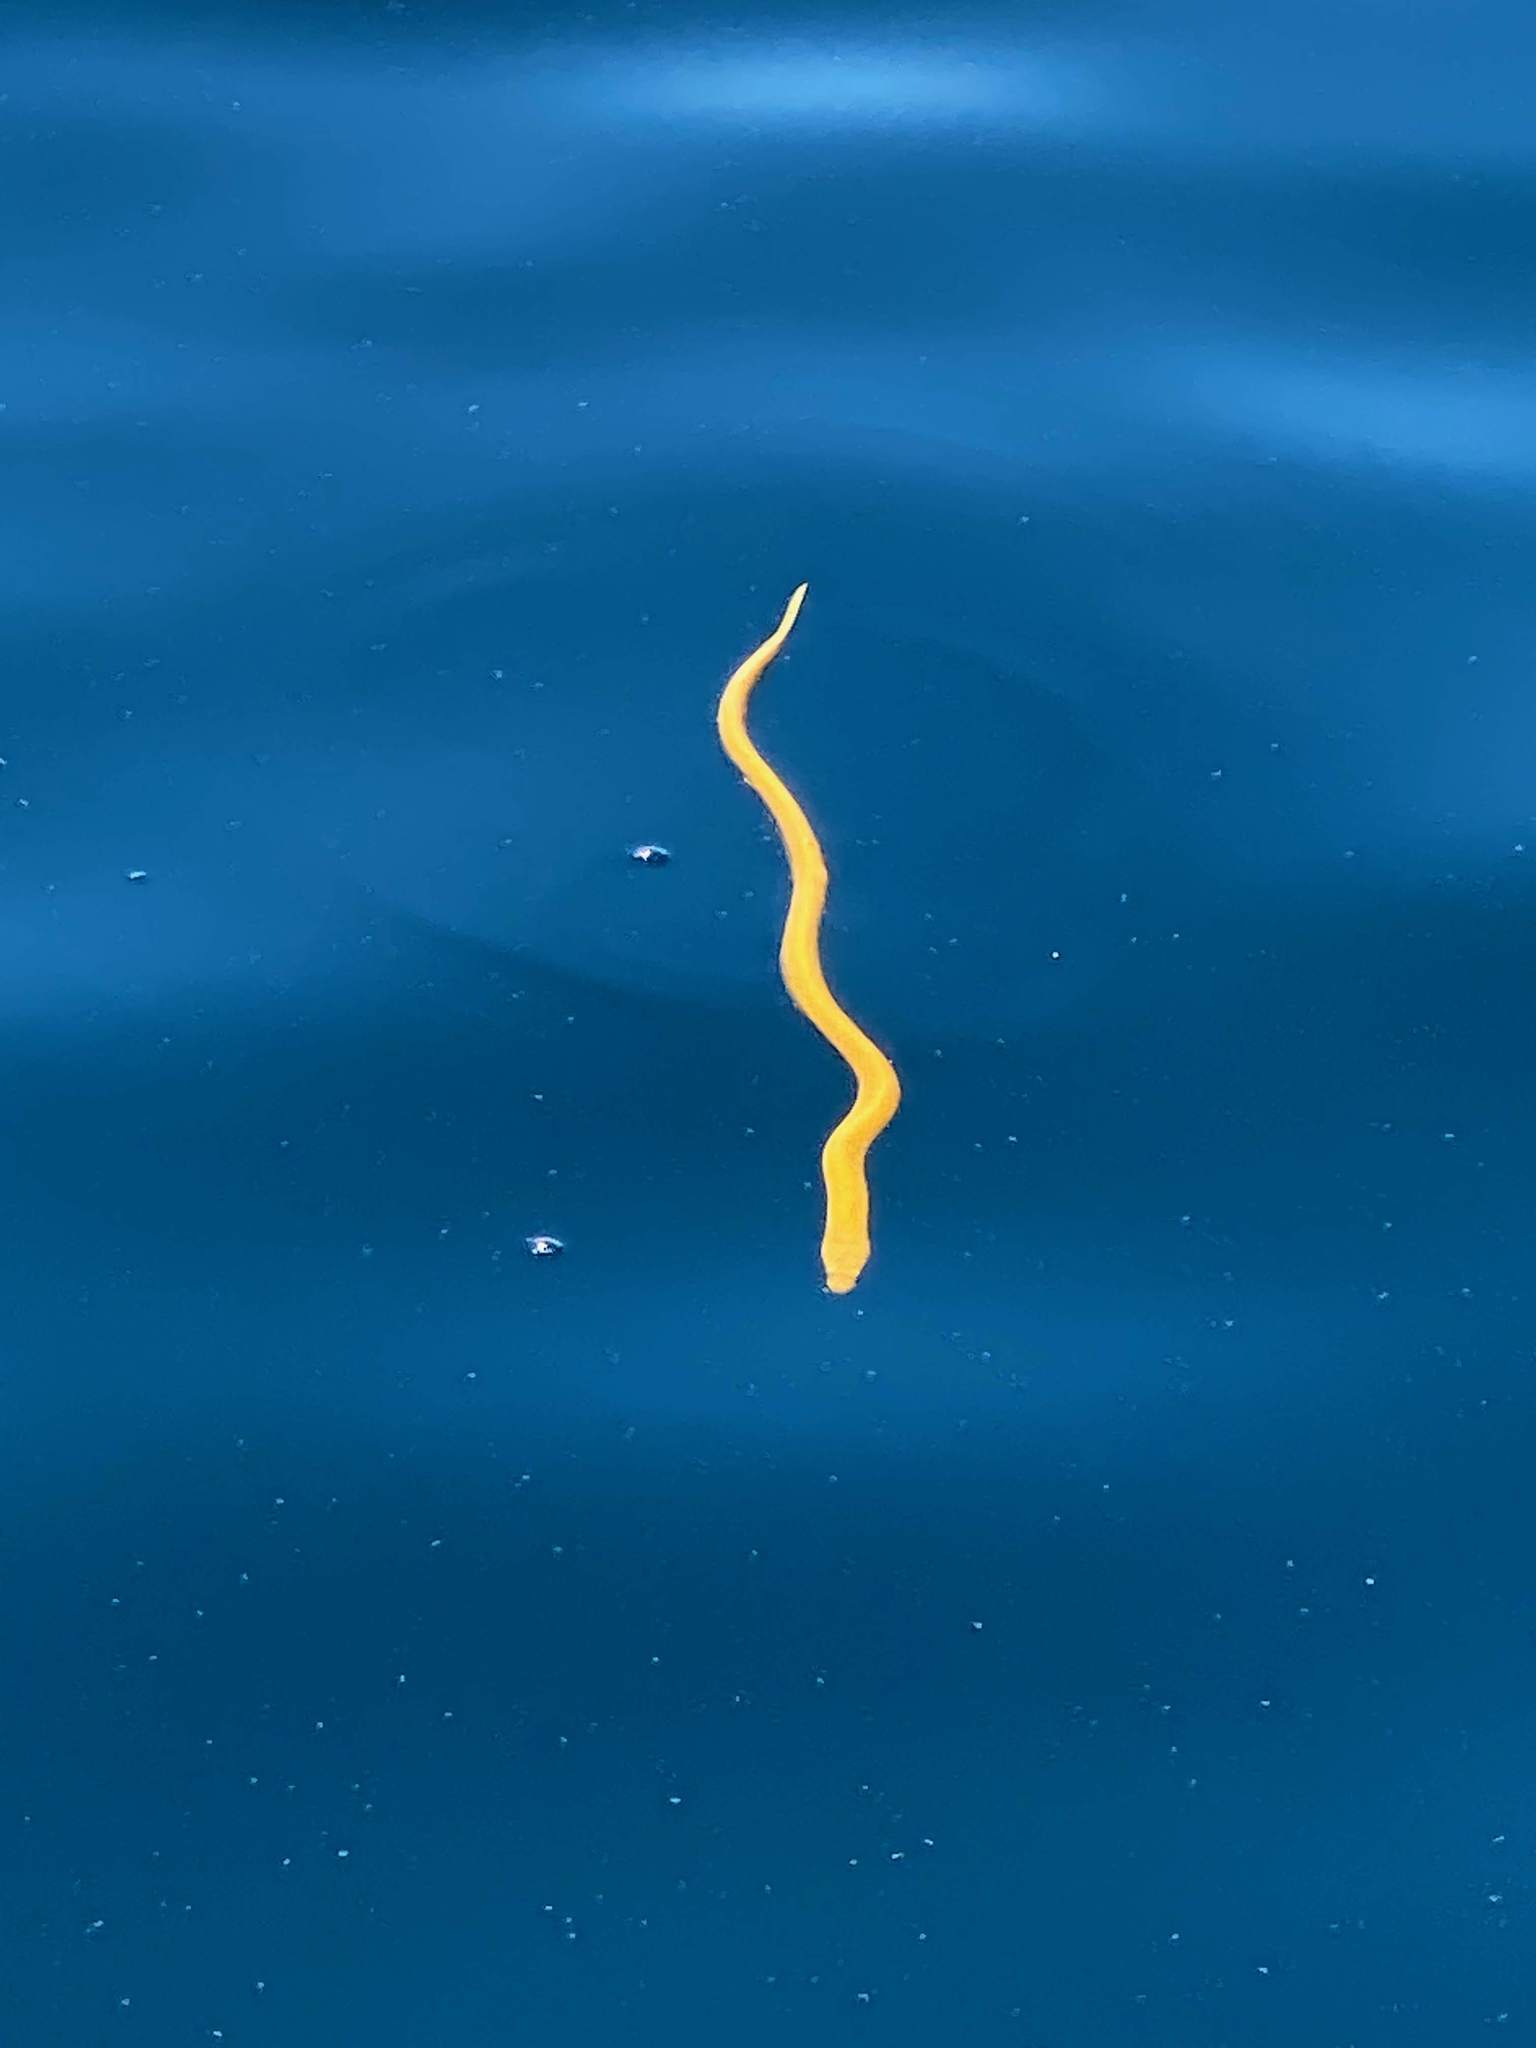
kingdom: Animalia
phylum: Chordata
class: Squamata
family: Elapidae
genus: Hydrophis
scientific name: Hydrophis platurus
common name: Pelagic sea snake
